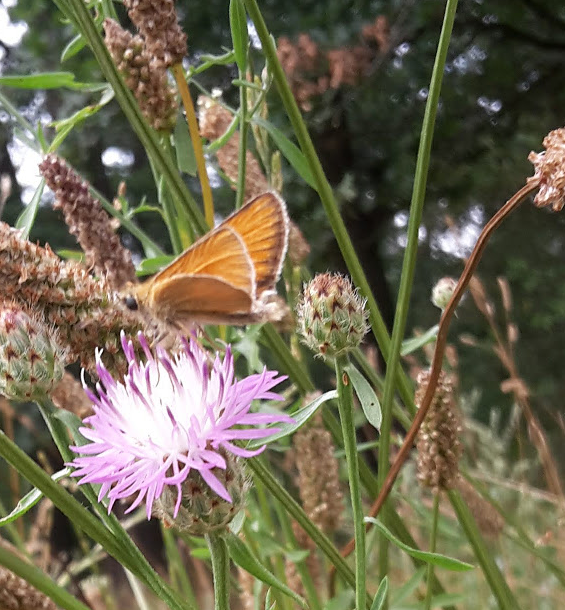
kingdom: Animalia
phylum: Arthropoda
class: Insecta
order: Lepidoptera
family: Hesperiidae
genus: Thymelicus
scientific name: Thymelicus lineola
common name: Essex skipper
